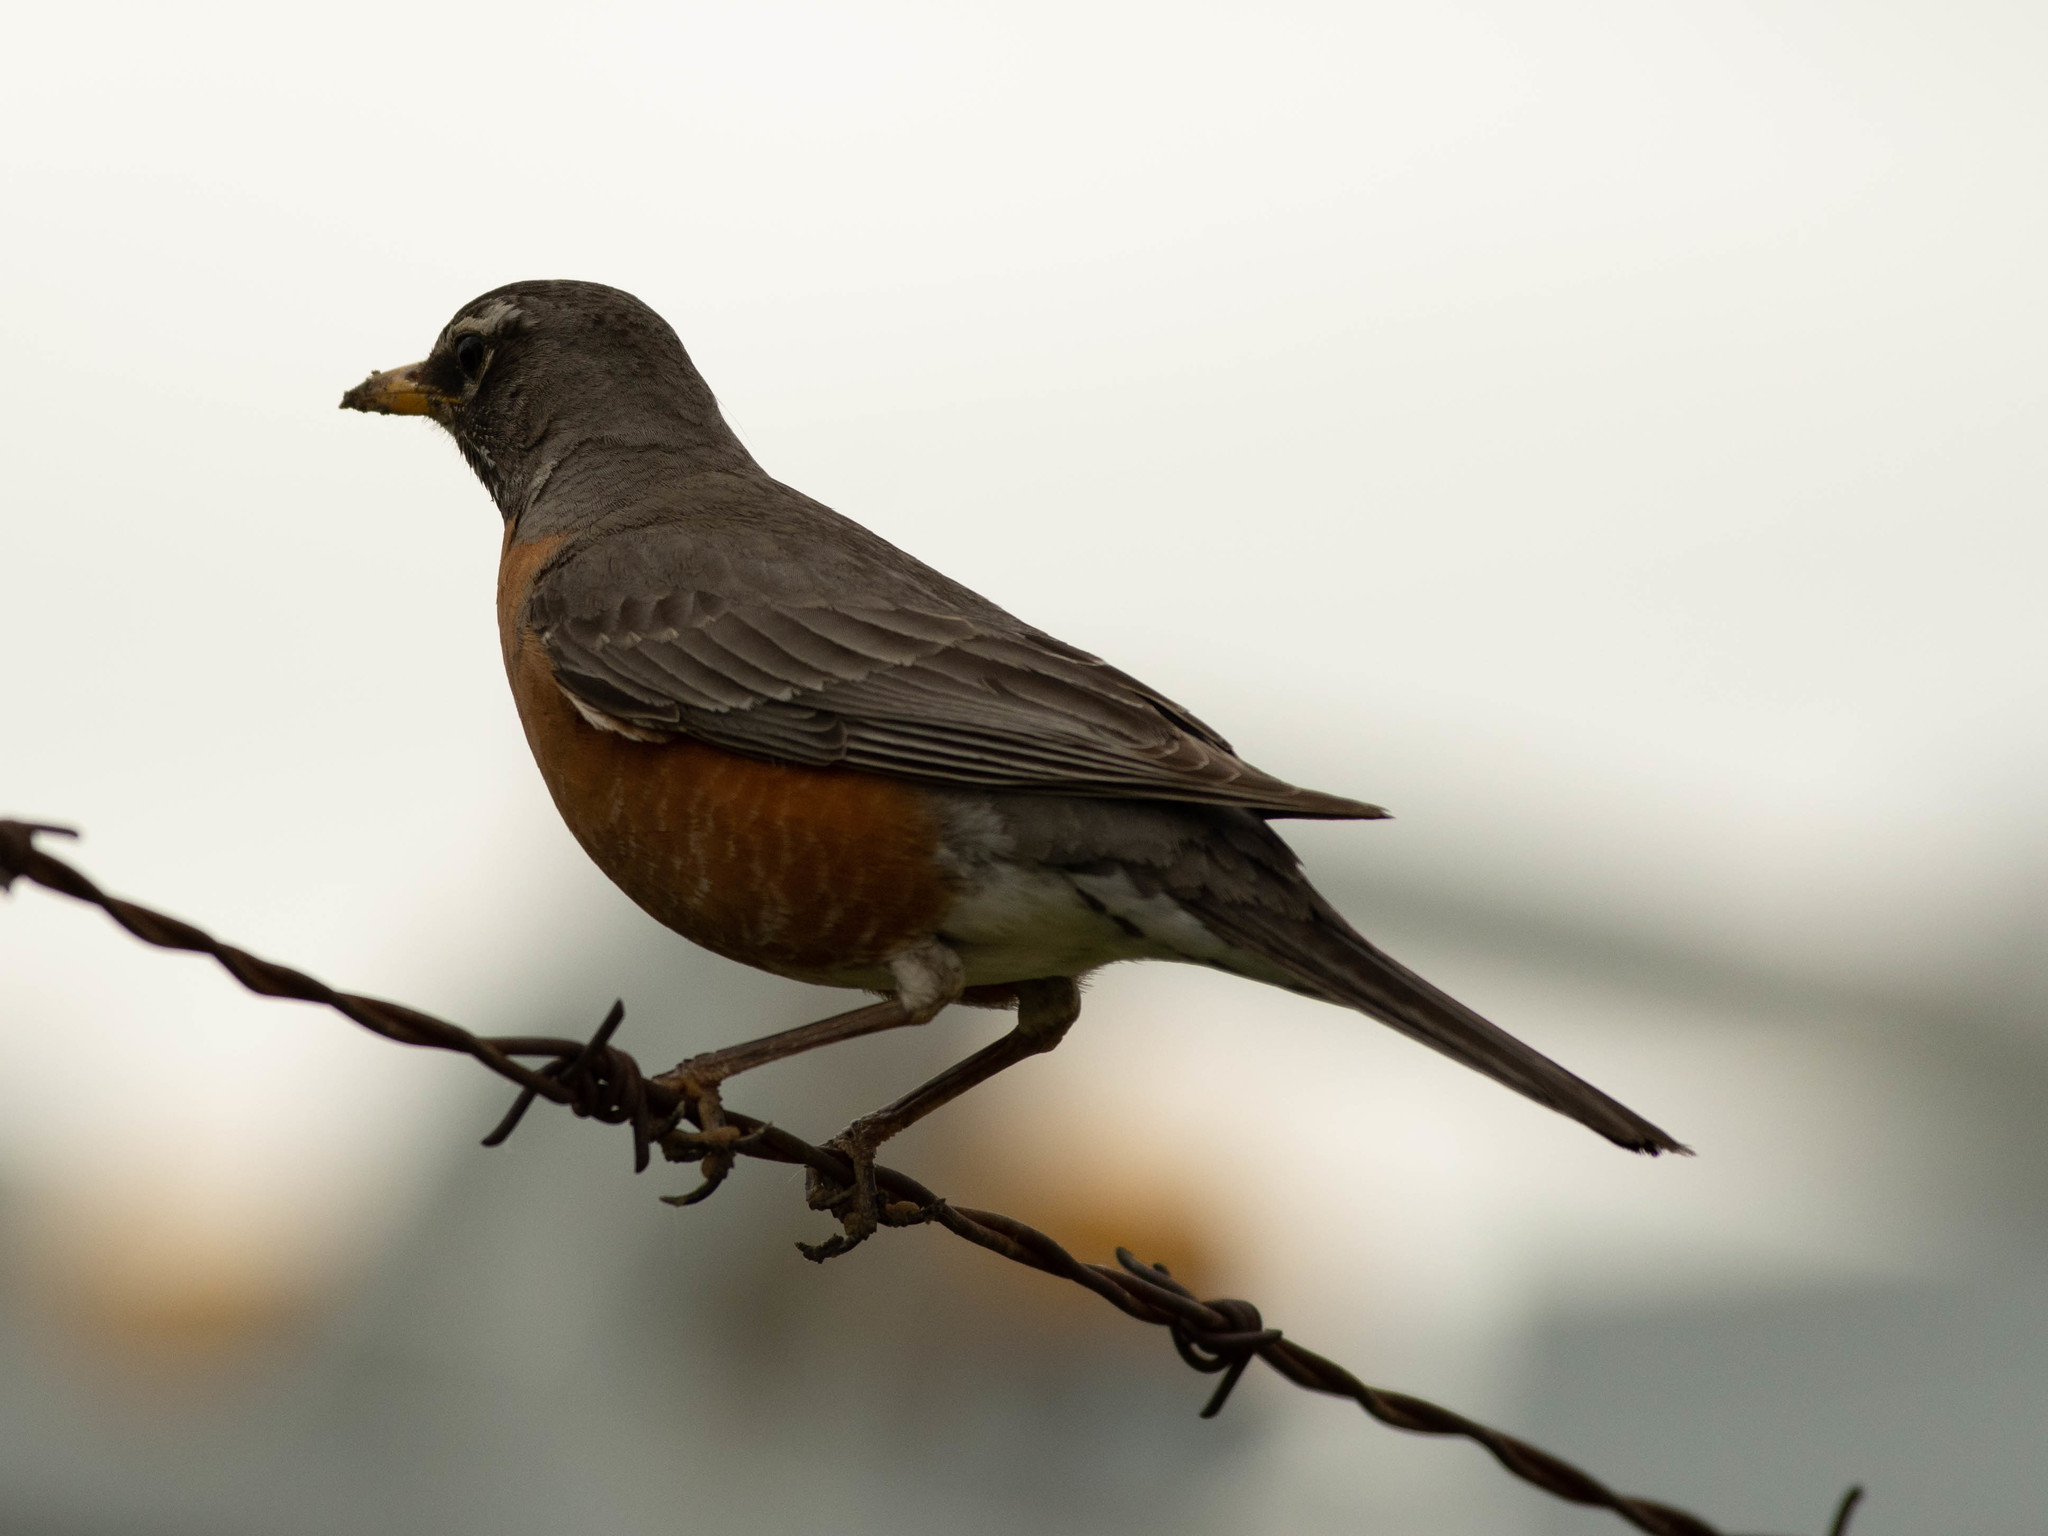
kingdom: Animalia
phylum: Chordata
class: Aves
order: Passeriformes
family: Turdidae
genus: Turdus
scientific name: Turdus migratorius
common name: American robin
